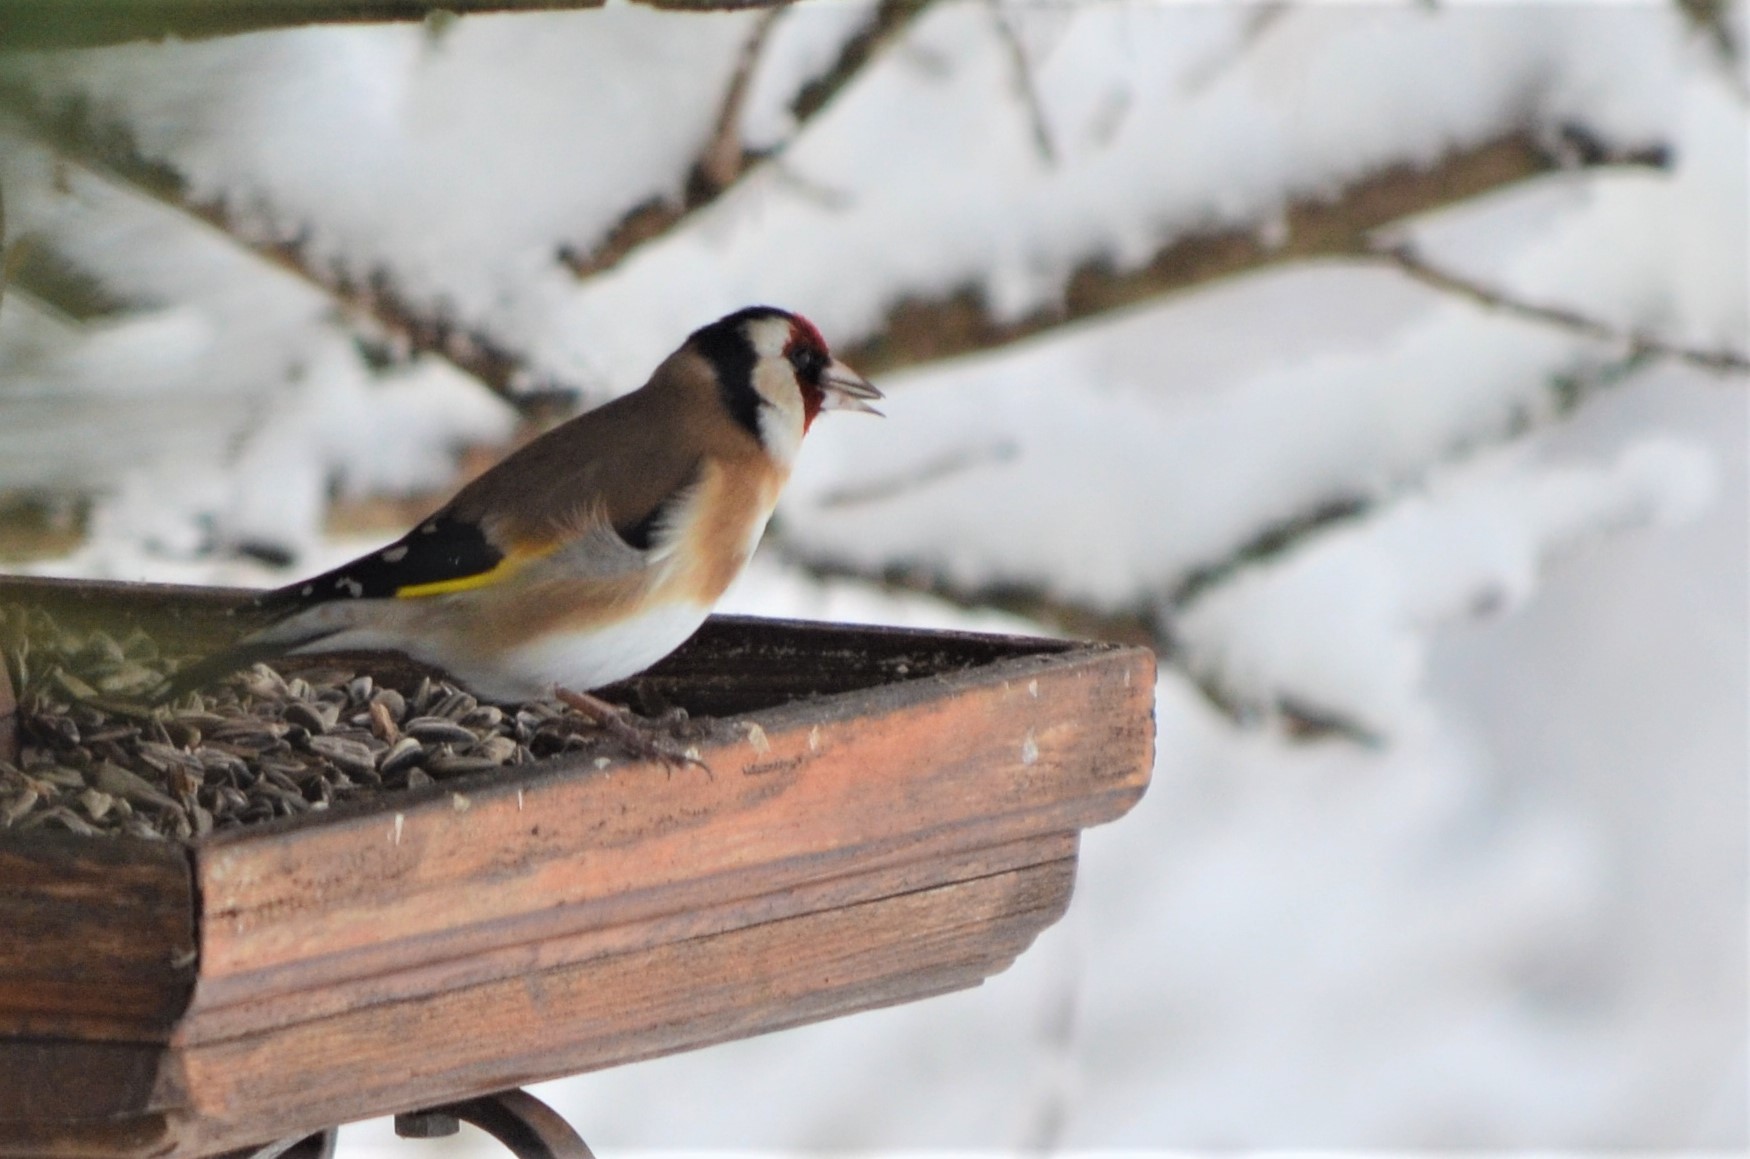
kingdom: Animalia
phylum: Chordata
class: Aves
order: Passeriformes
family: Fringillidae
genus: Carduelis
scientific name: Carduelis carduelis
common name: European goldfinch
